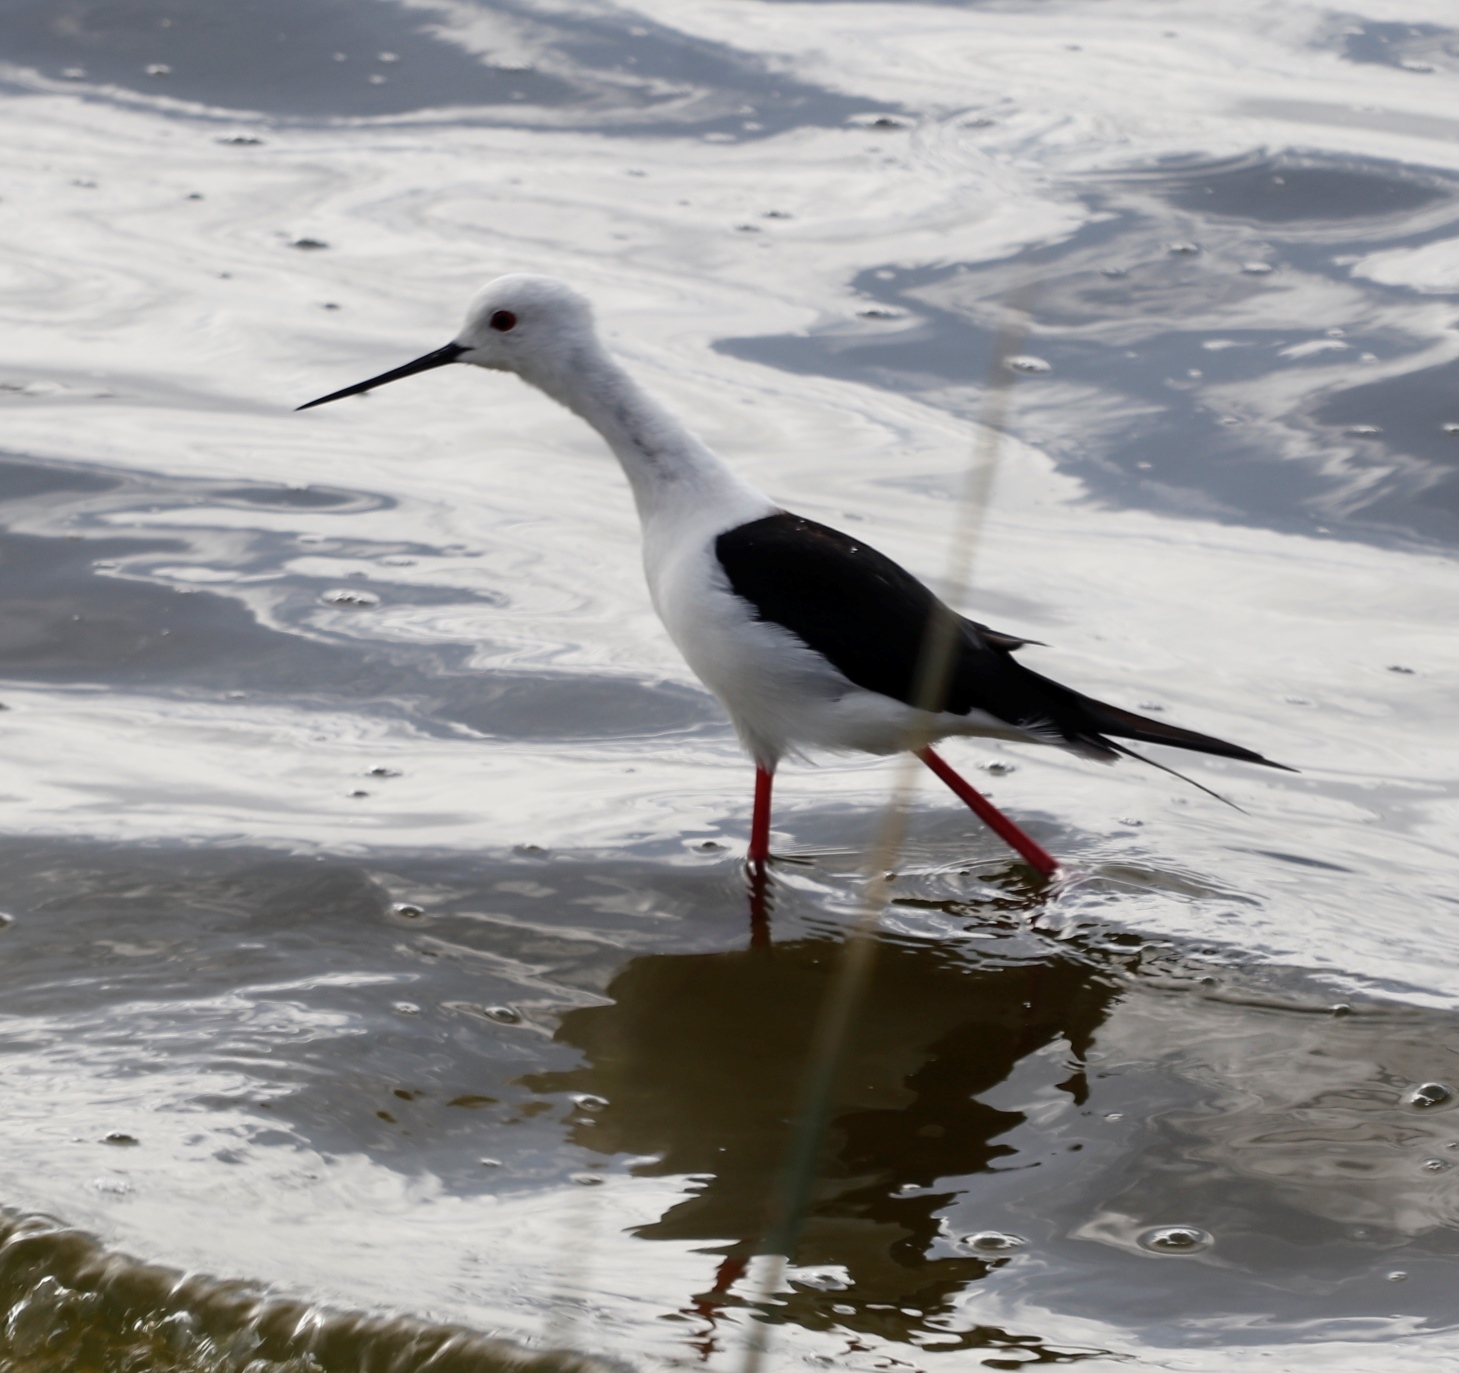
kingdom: Animalia
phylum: Chordata
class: Aves
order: Charadriiformes
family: Recurvirostridae
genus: Himantopus
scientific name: Himantopus himantopus
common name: Black-winged stilt
